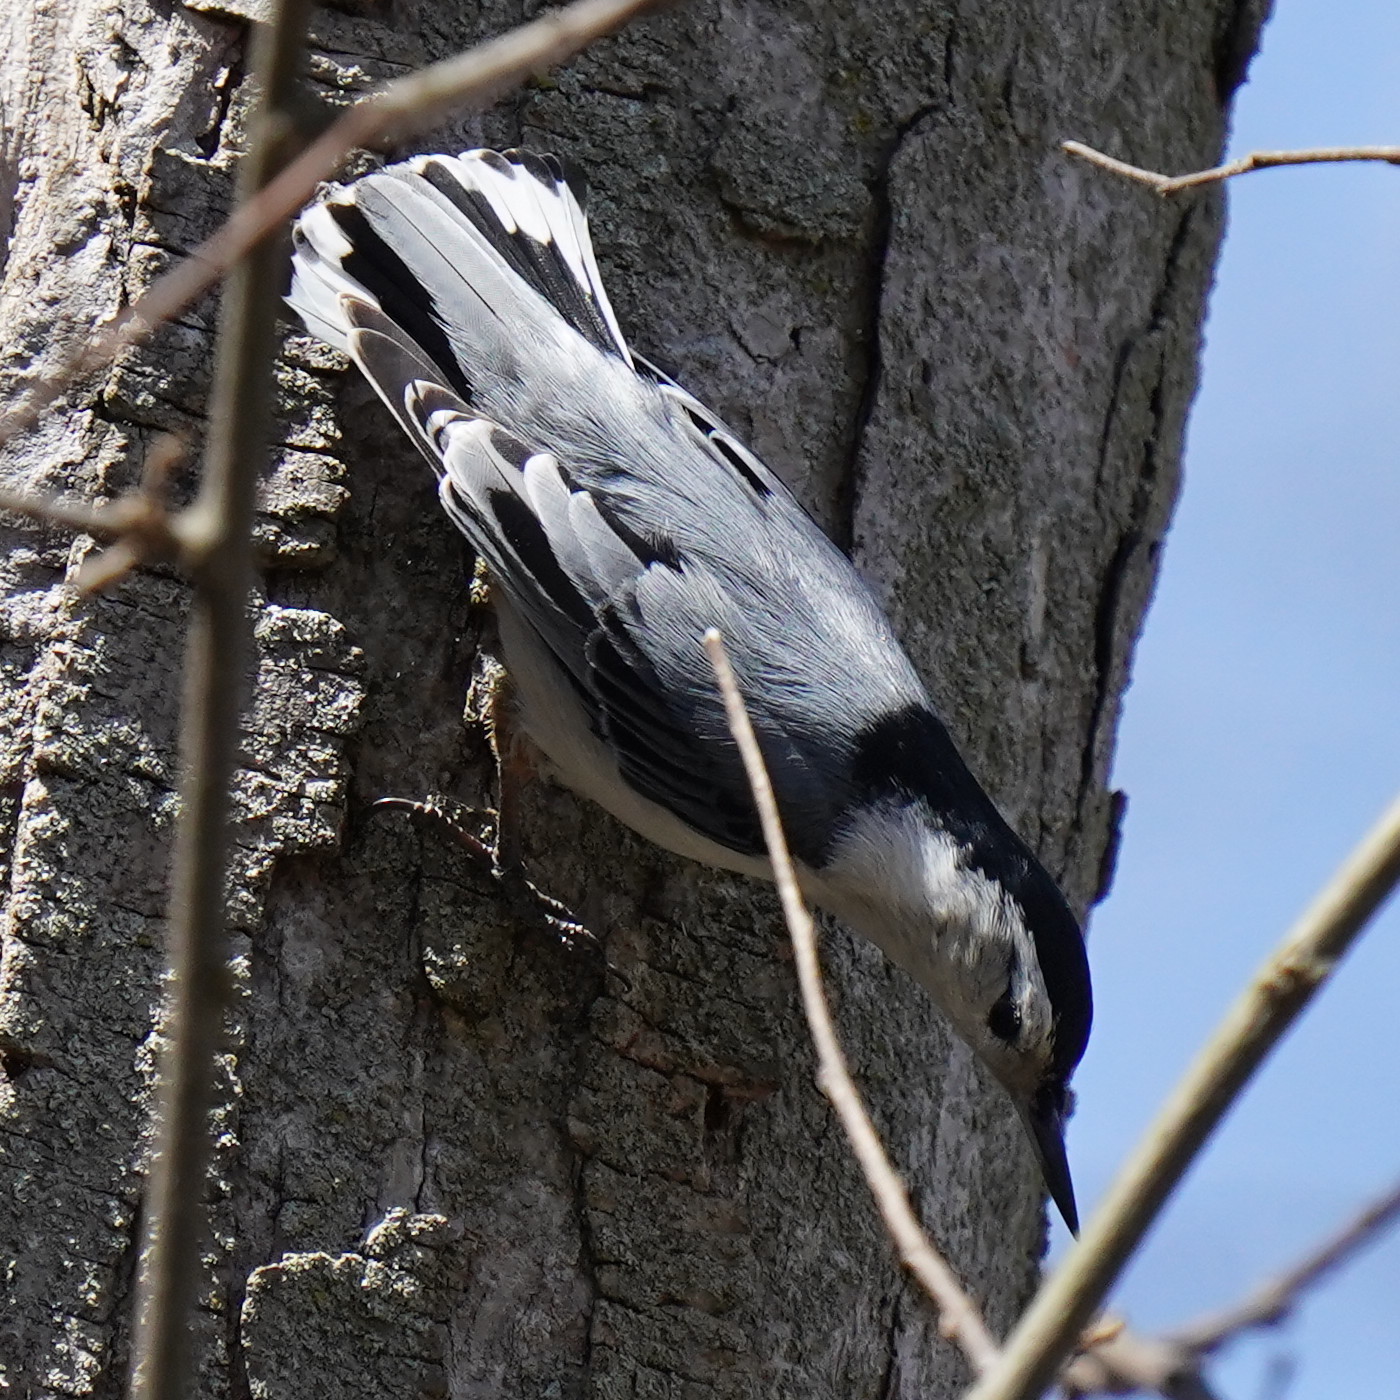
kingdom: Animalia
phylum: Chordata
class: Aves
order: Passeriformes
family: Sittidae
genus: Sitta
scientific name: Sitta carolinensis
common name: White-breasted nuthatch
